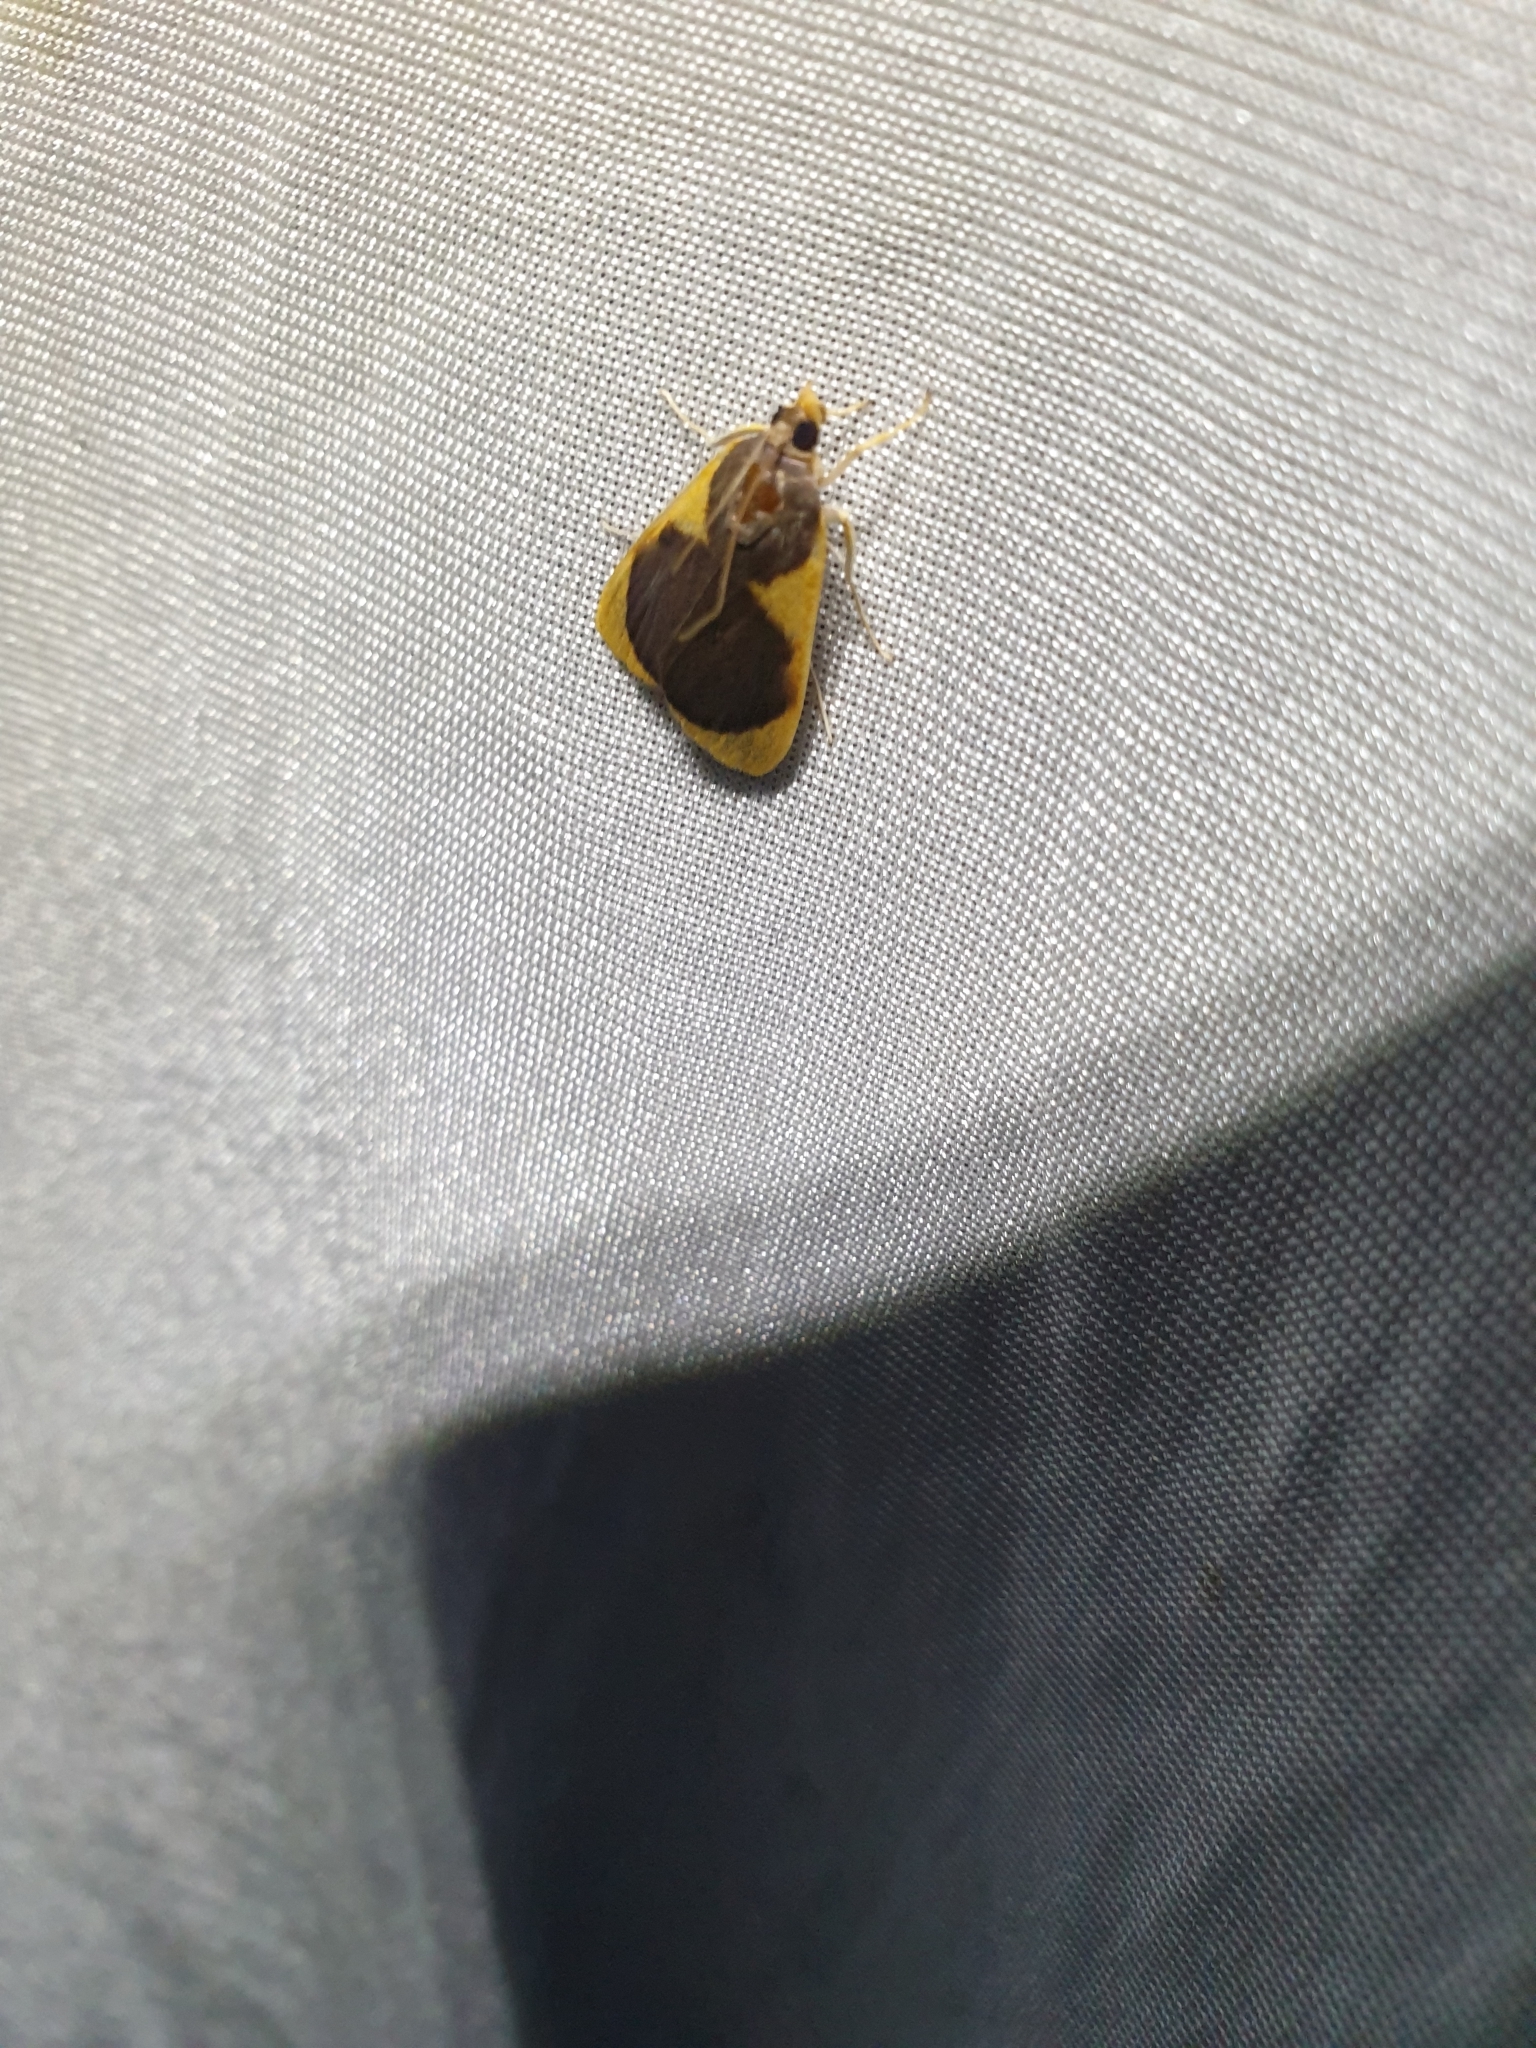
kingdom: Animalia
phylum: Arthropoda
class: Insecta
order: Lepidoptera
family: Crambidae
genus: Prooedema
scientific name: Prooedema inscisalis
